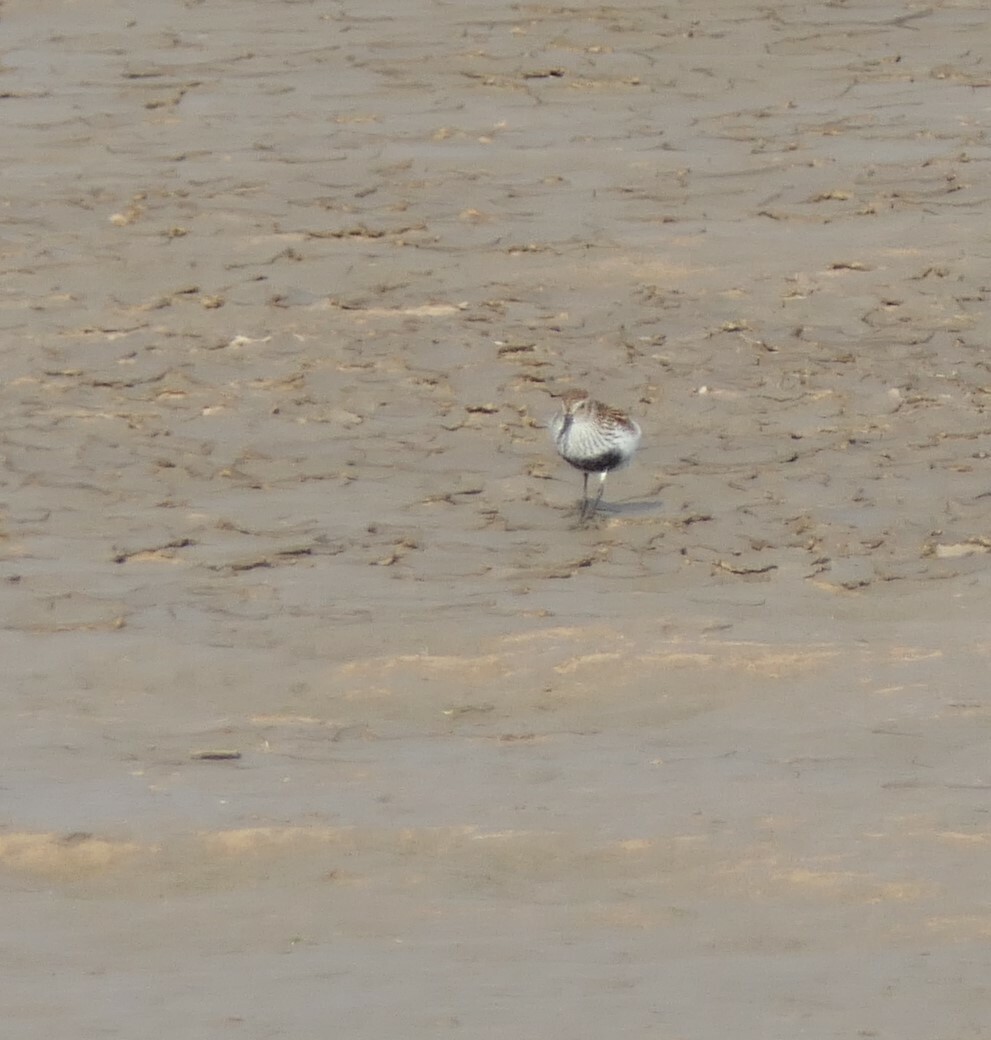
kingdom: Animalia
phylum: Chordata
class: Aves
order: Charadriiformes
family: Scolopacidae
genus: Calidris
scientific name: Calidris alpina
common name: Dunlin
